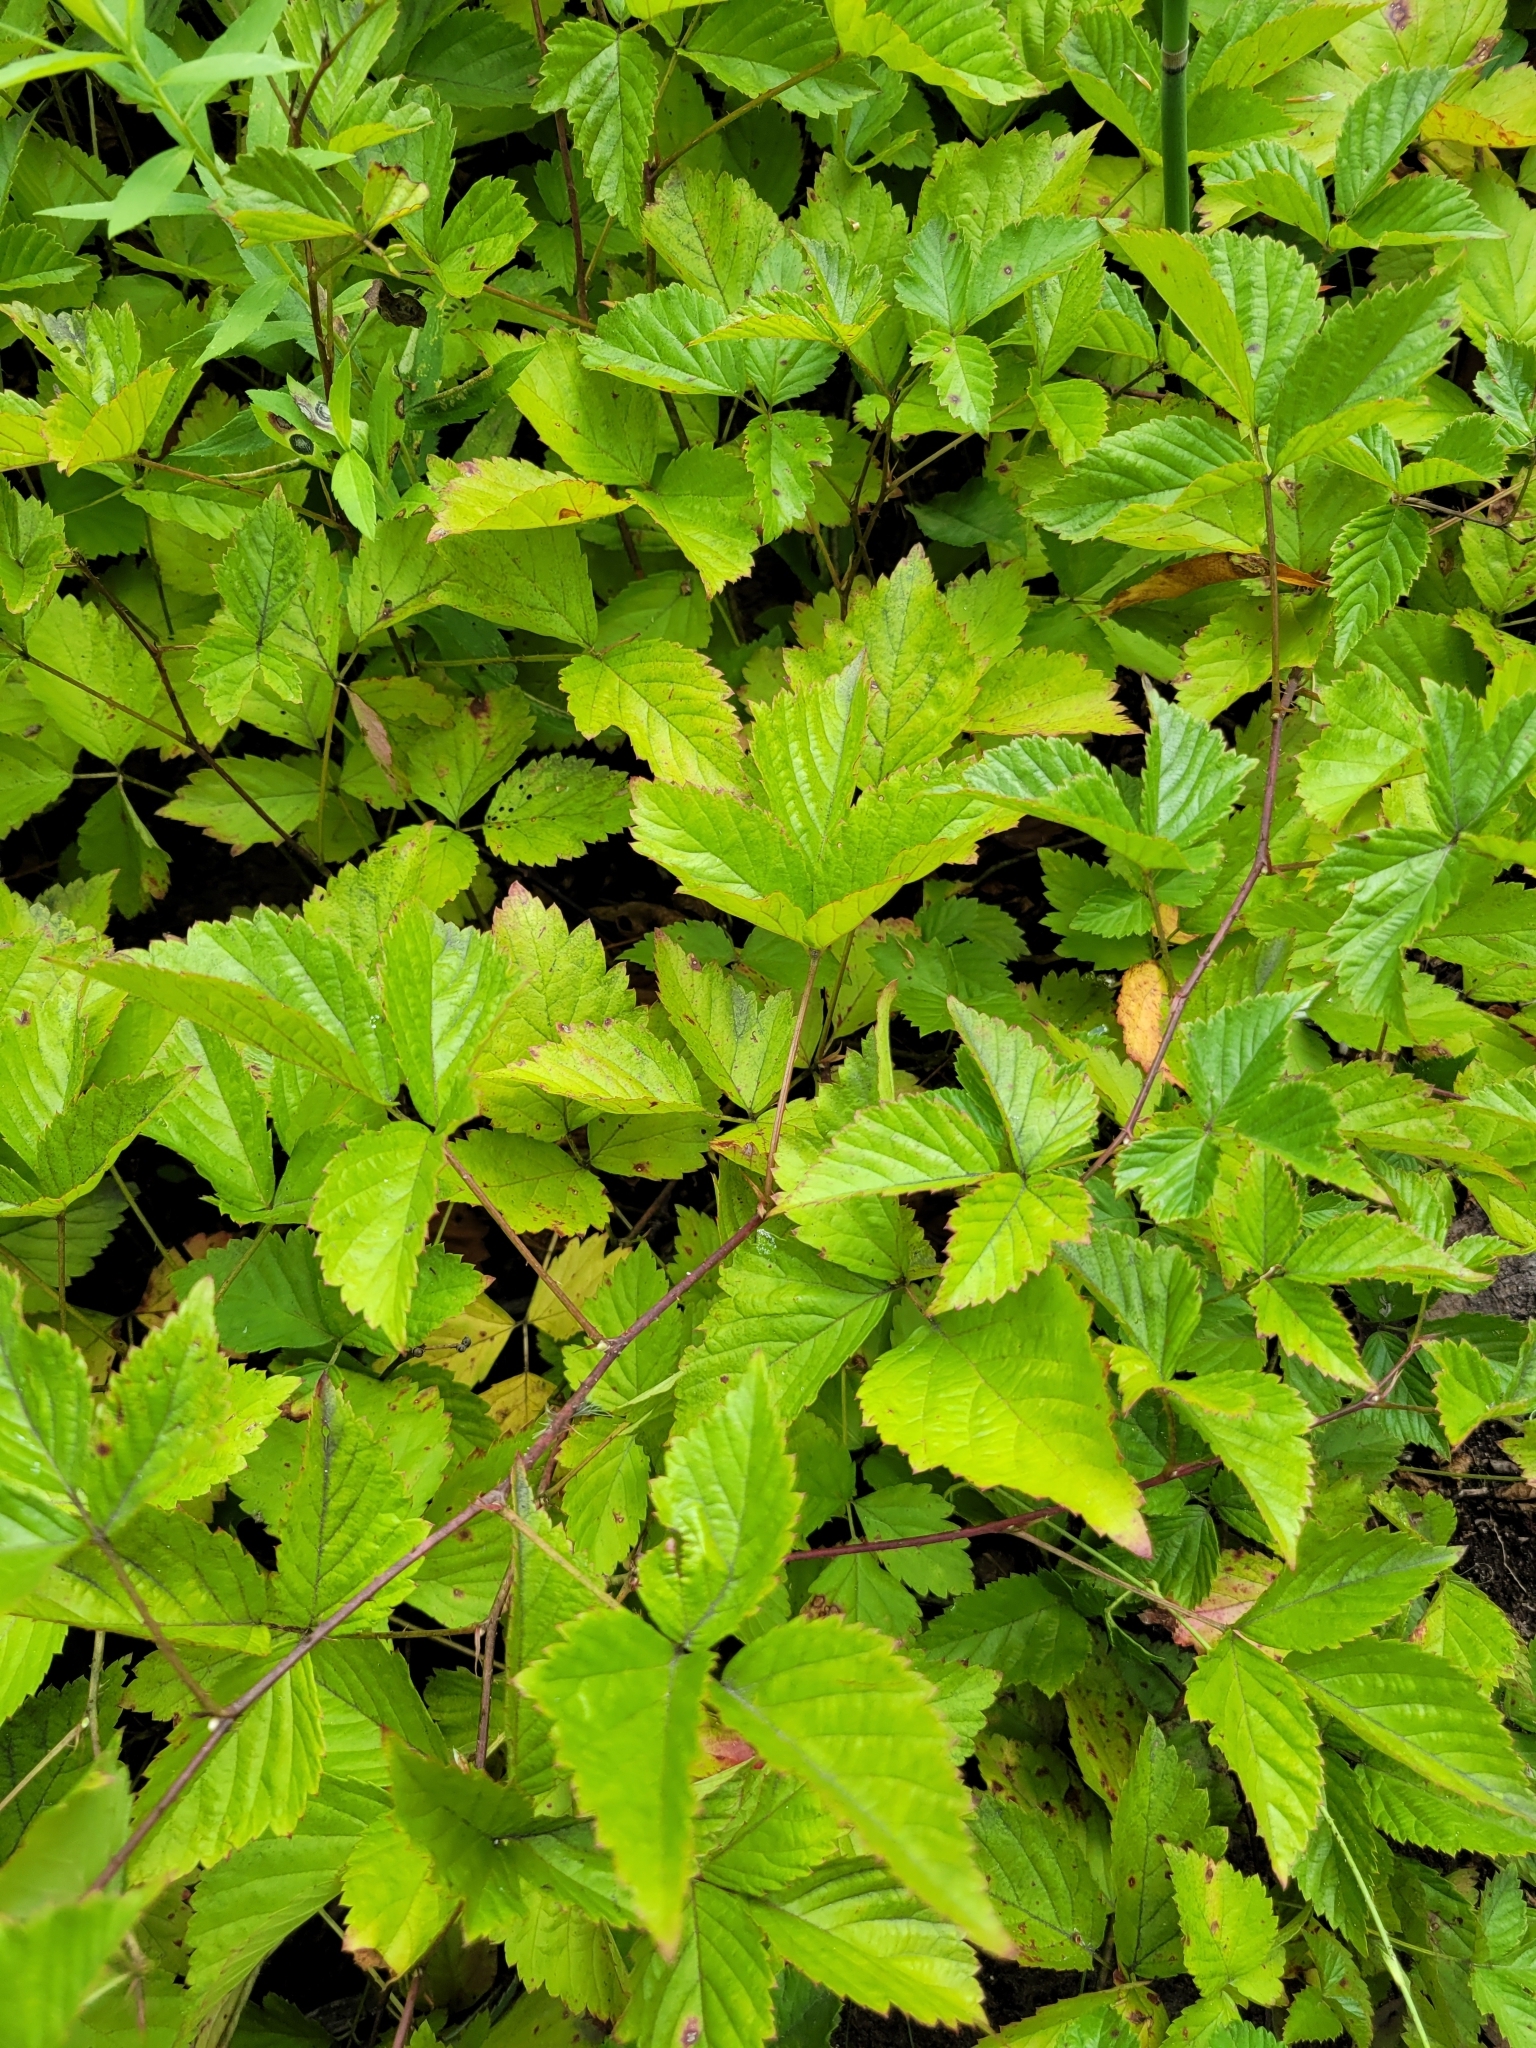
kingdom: Plantae
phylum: Tracheophyta
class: Magnoliopsida
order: Rosales
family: Rosaceae
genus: Rubus
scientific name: Rubus flagellaris
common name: American dewberry
